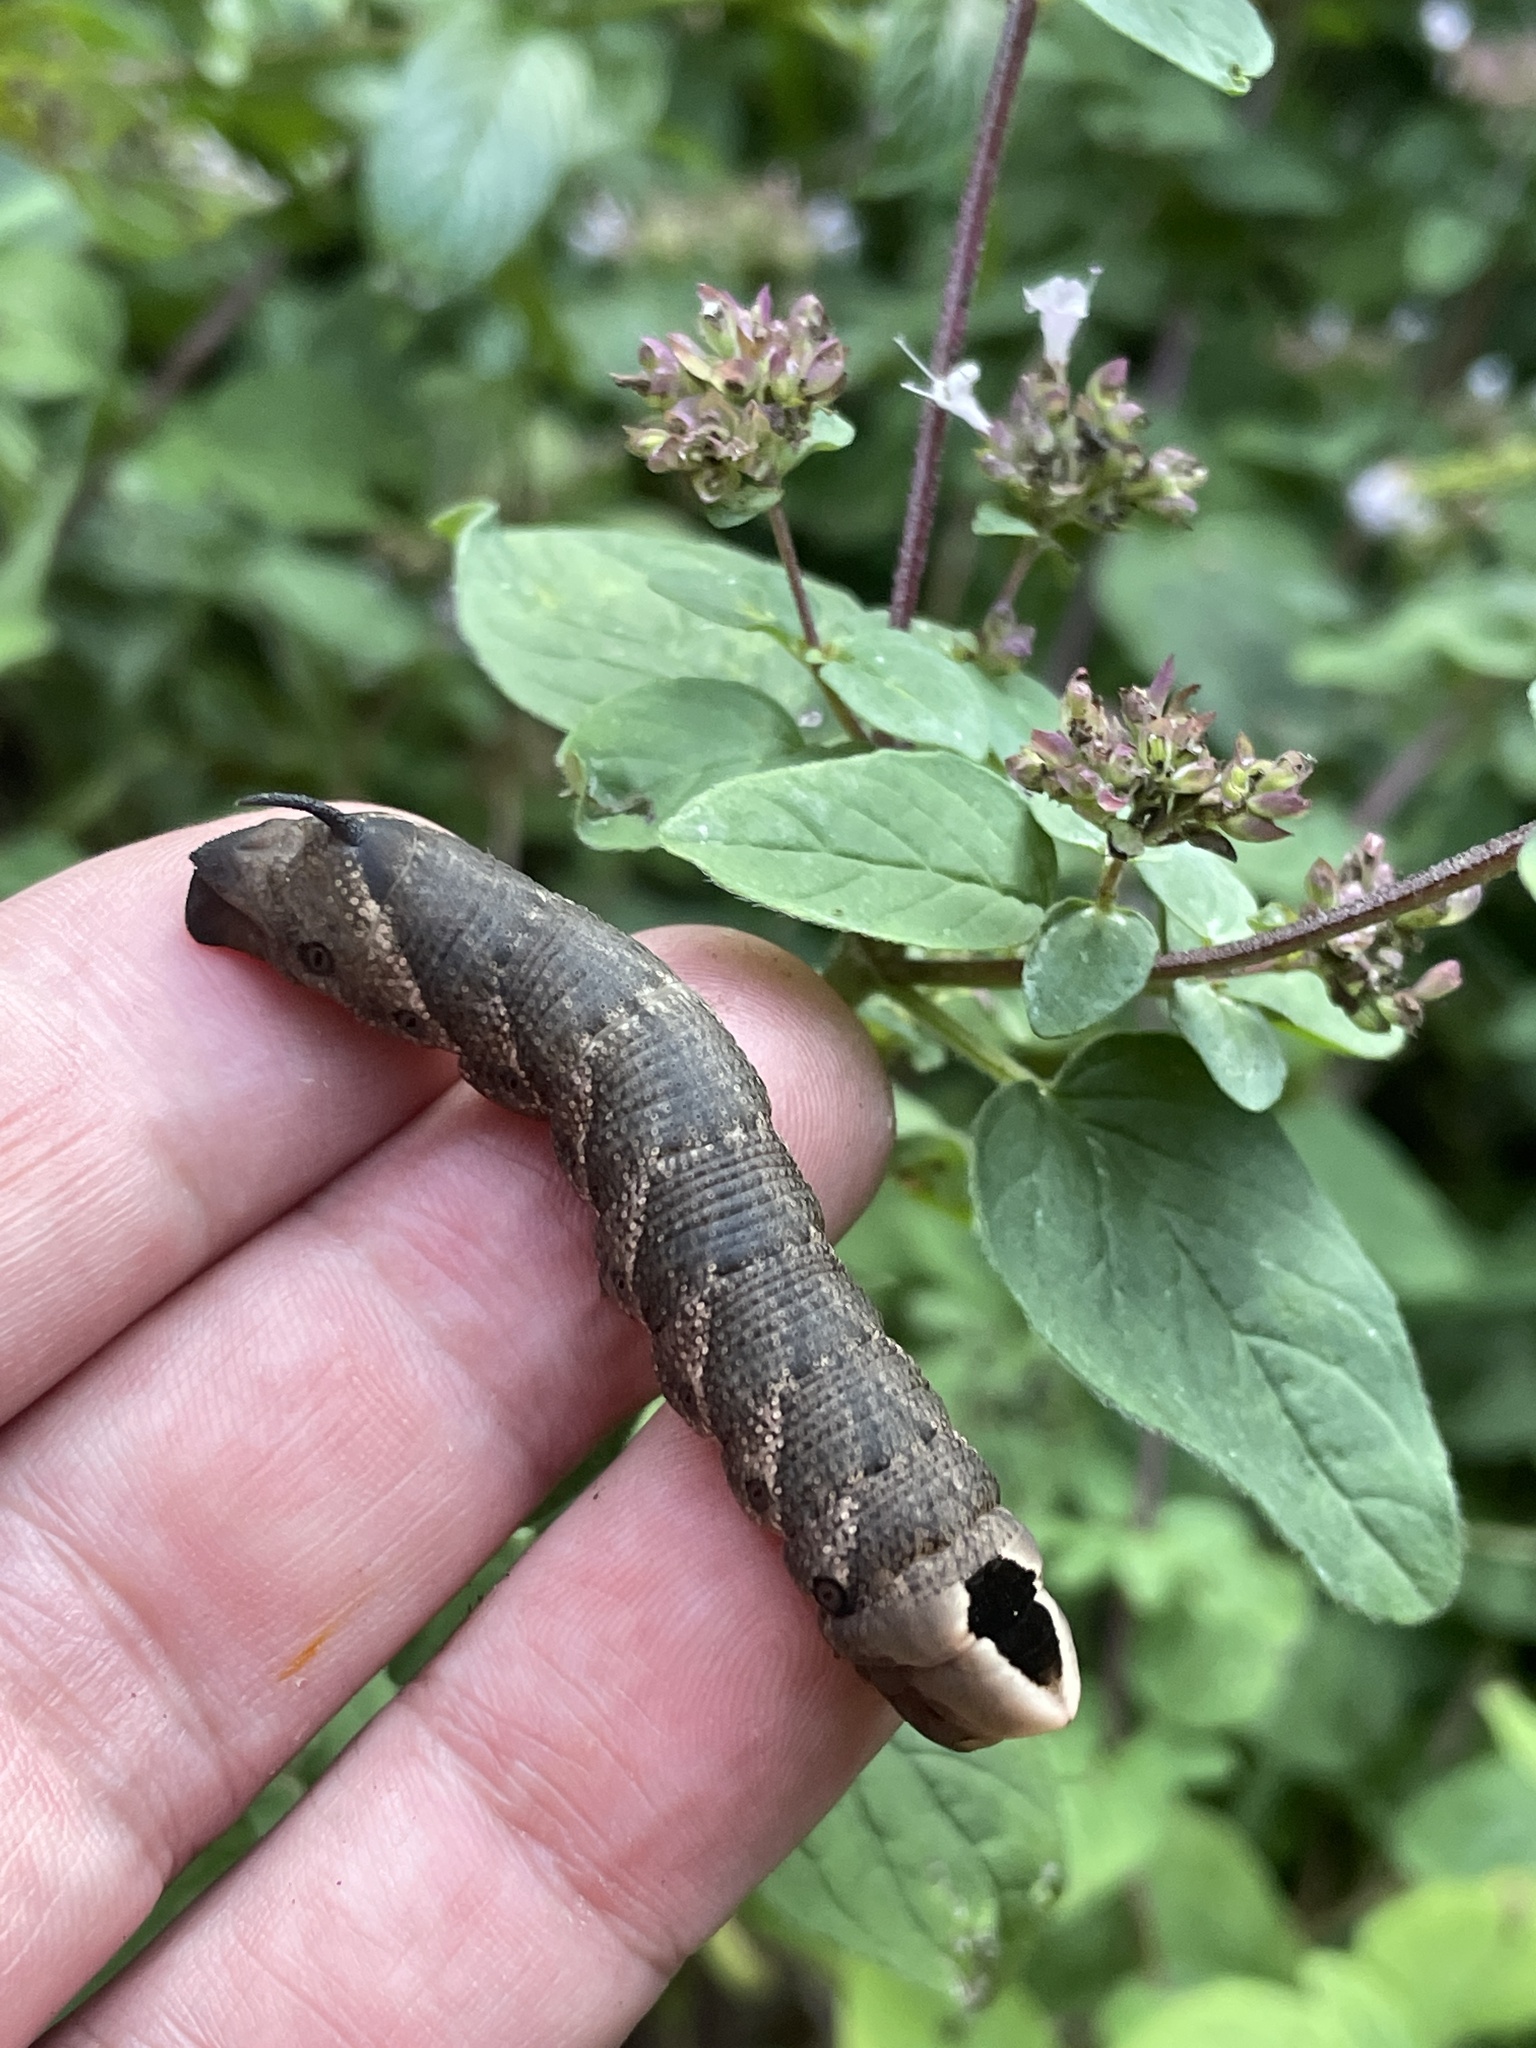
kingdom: Animalia
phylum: Arthropoda
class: Insecta
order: Lepidoptera
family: Sphingidae
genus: Lintneria
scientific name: Lintneria eremitus
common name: Hermit sphinx
